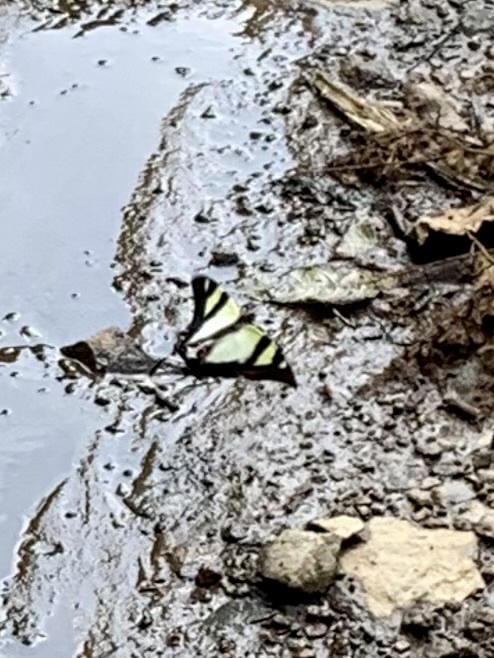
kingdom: Animalia
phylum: Arthropoda
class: Insecta
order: Lepidoptera
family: Papilionidae
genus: Eurytides
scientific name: Eurytides
